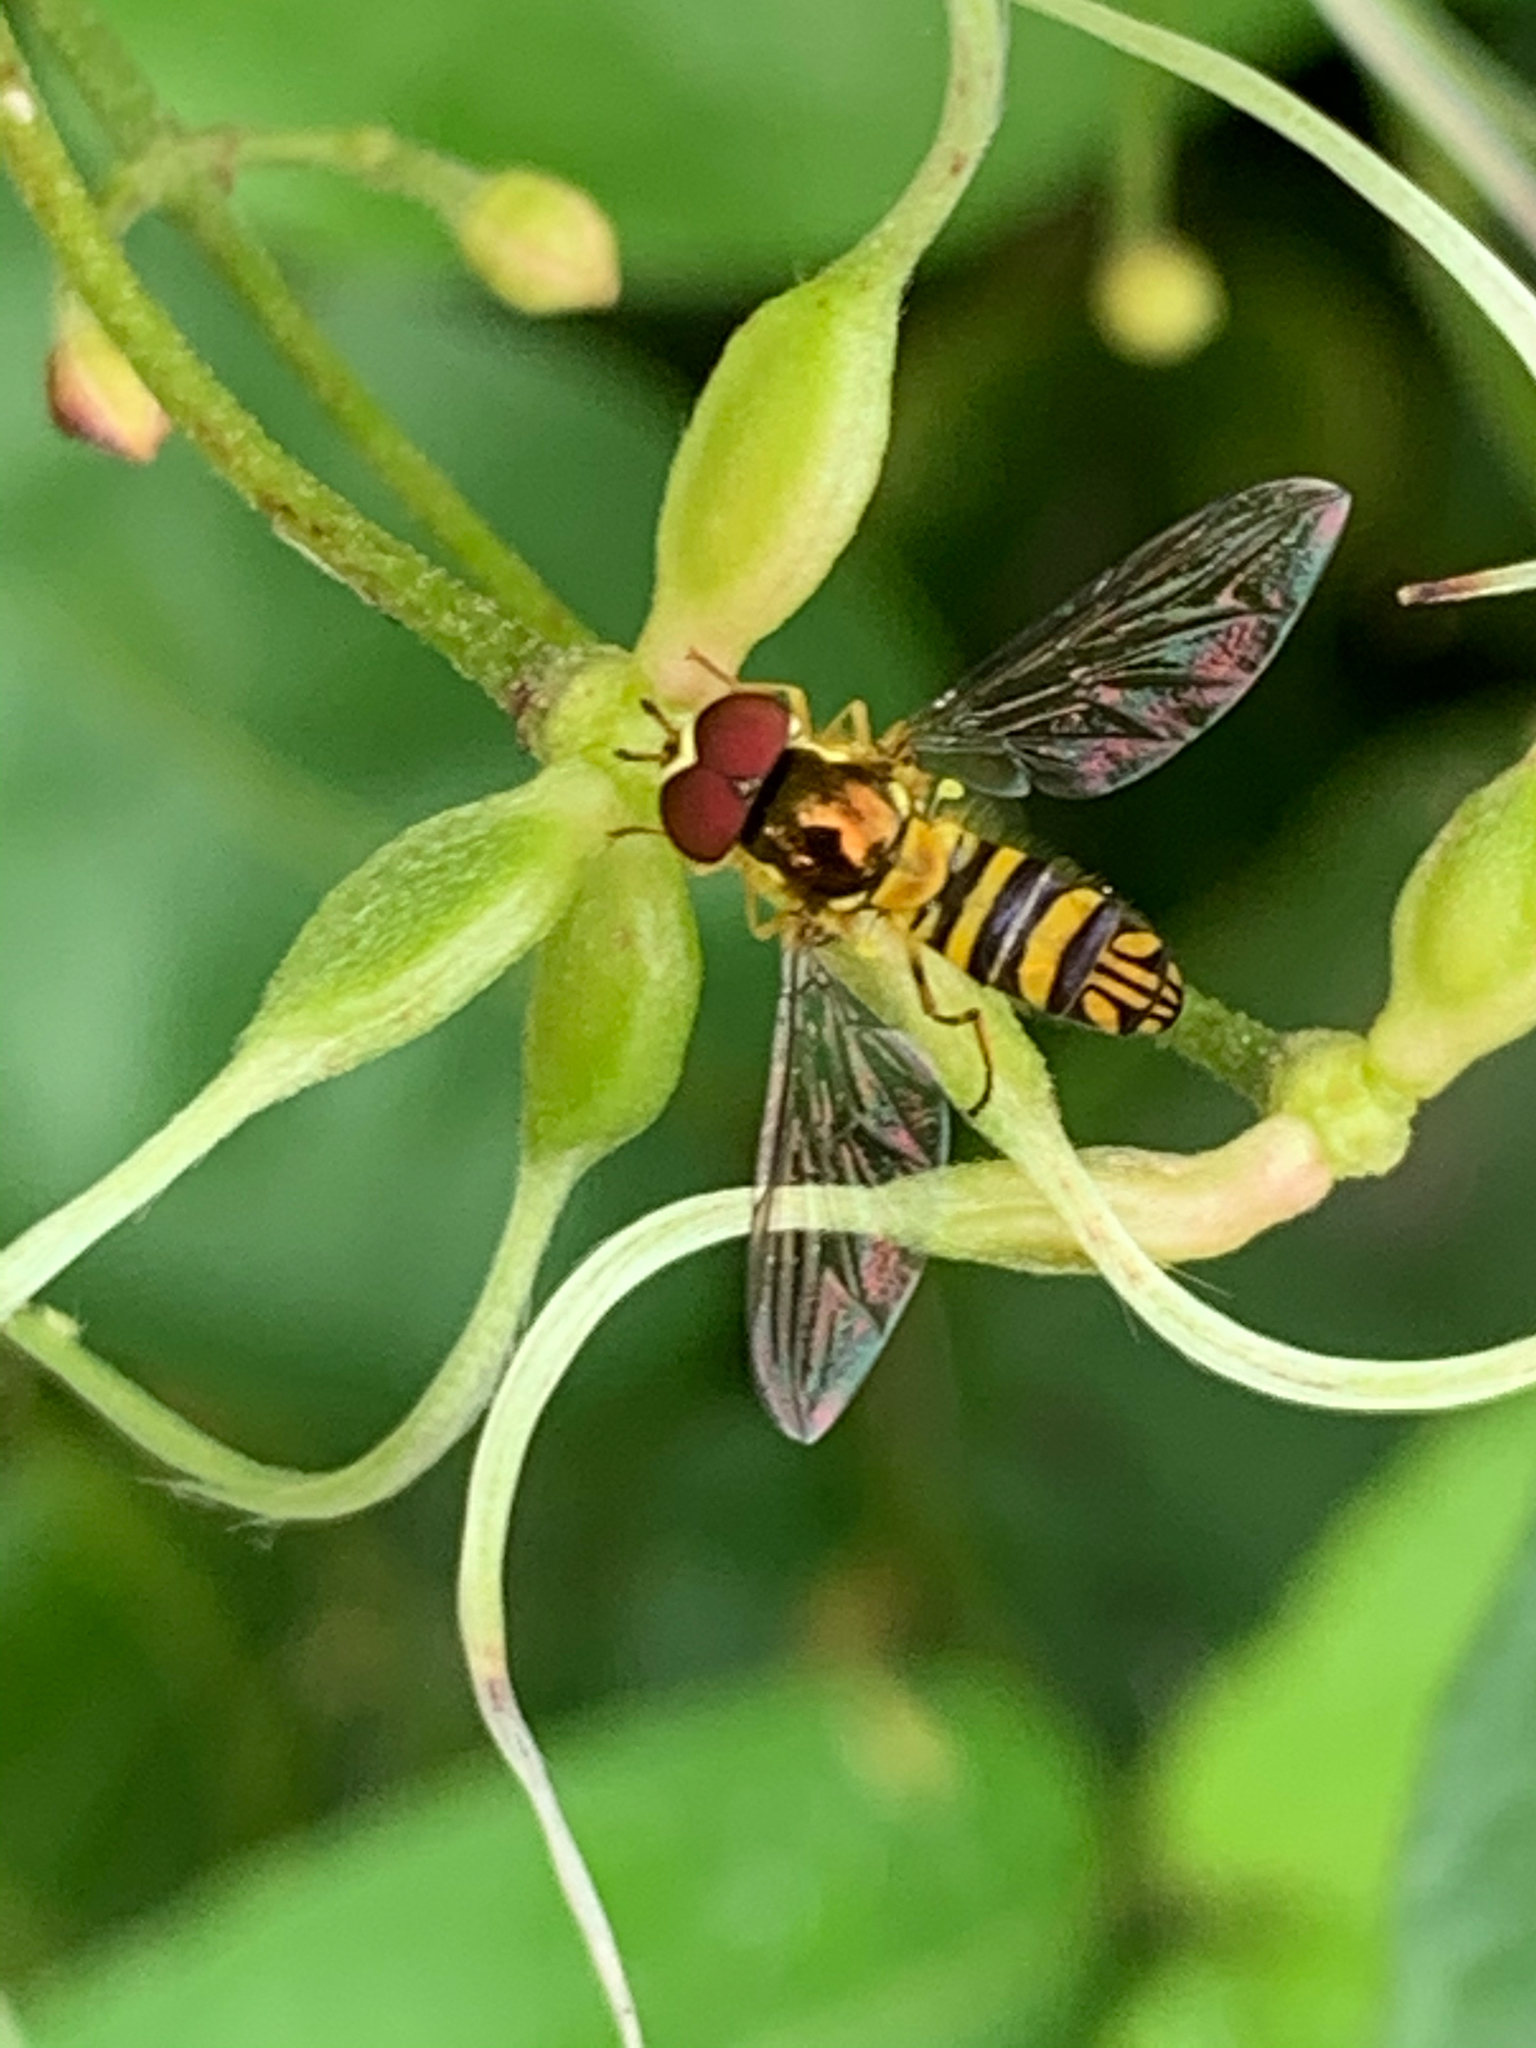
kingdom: Animalia
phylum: Arthropoda
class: Insecta
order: Diptera
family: Syrphidae
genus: Allograpta
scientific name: Allograpta obliqua
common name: Common oblique syrphid
